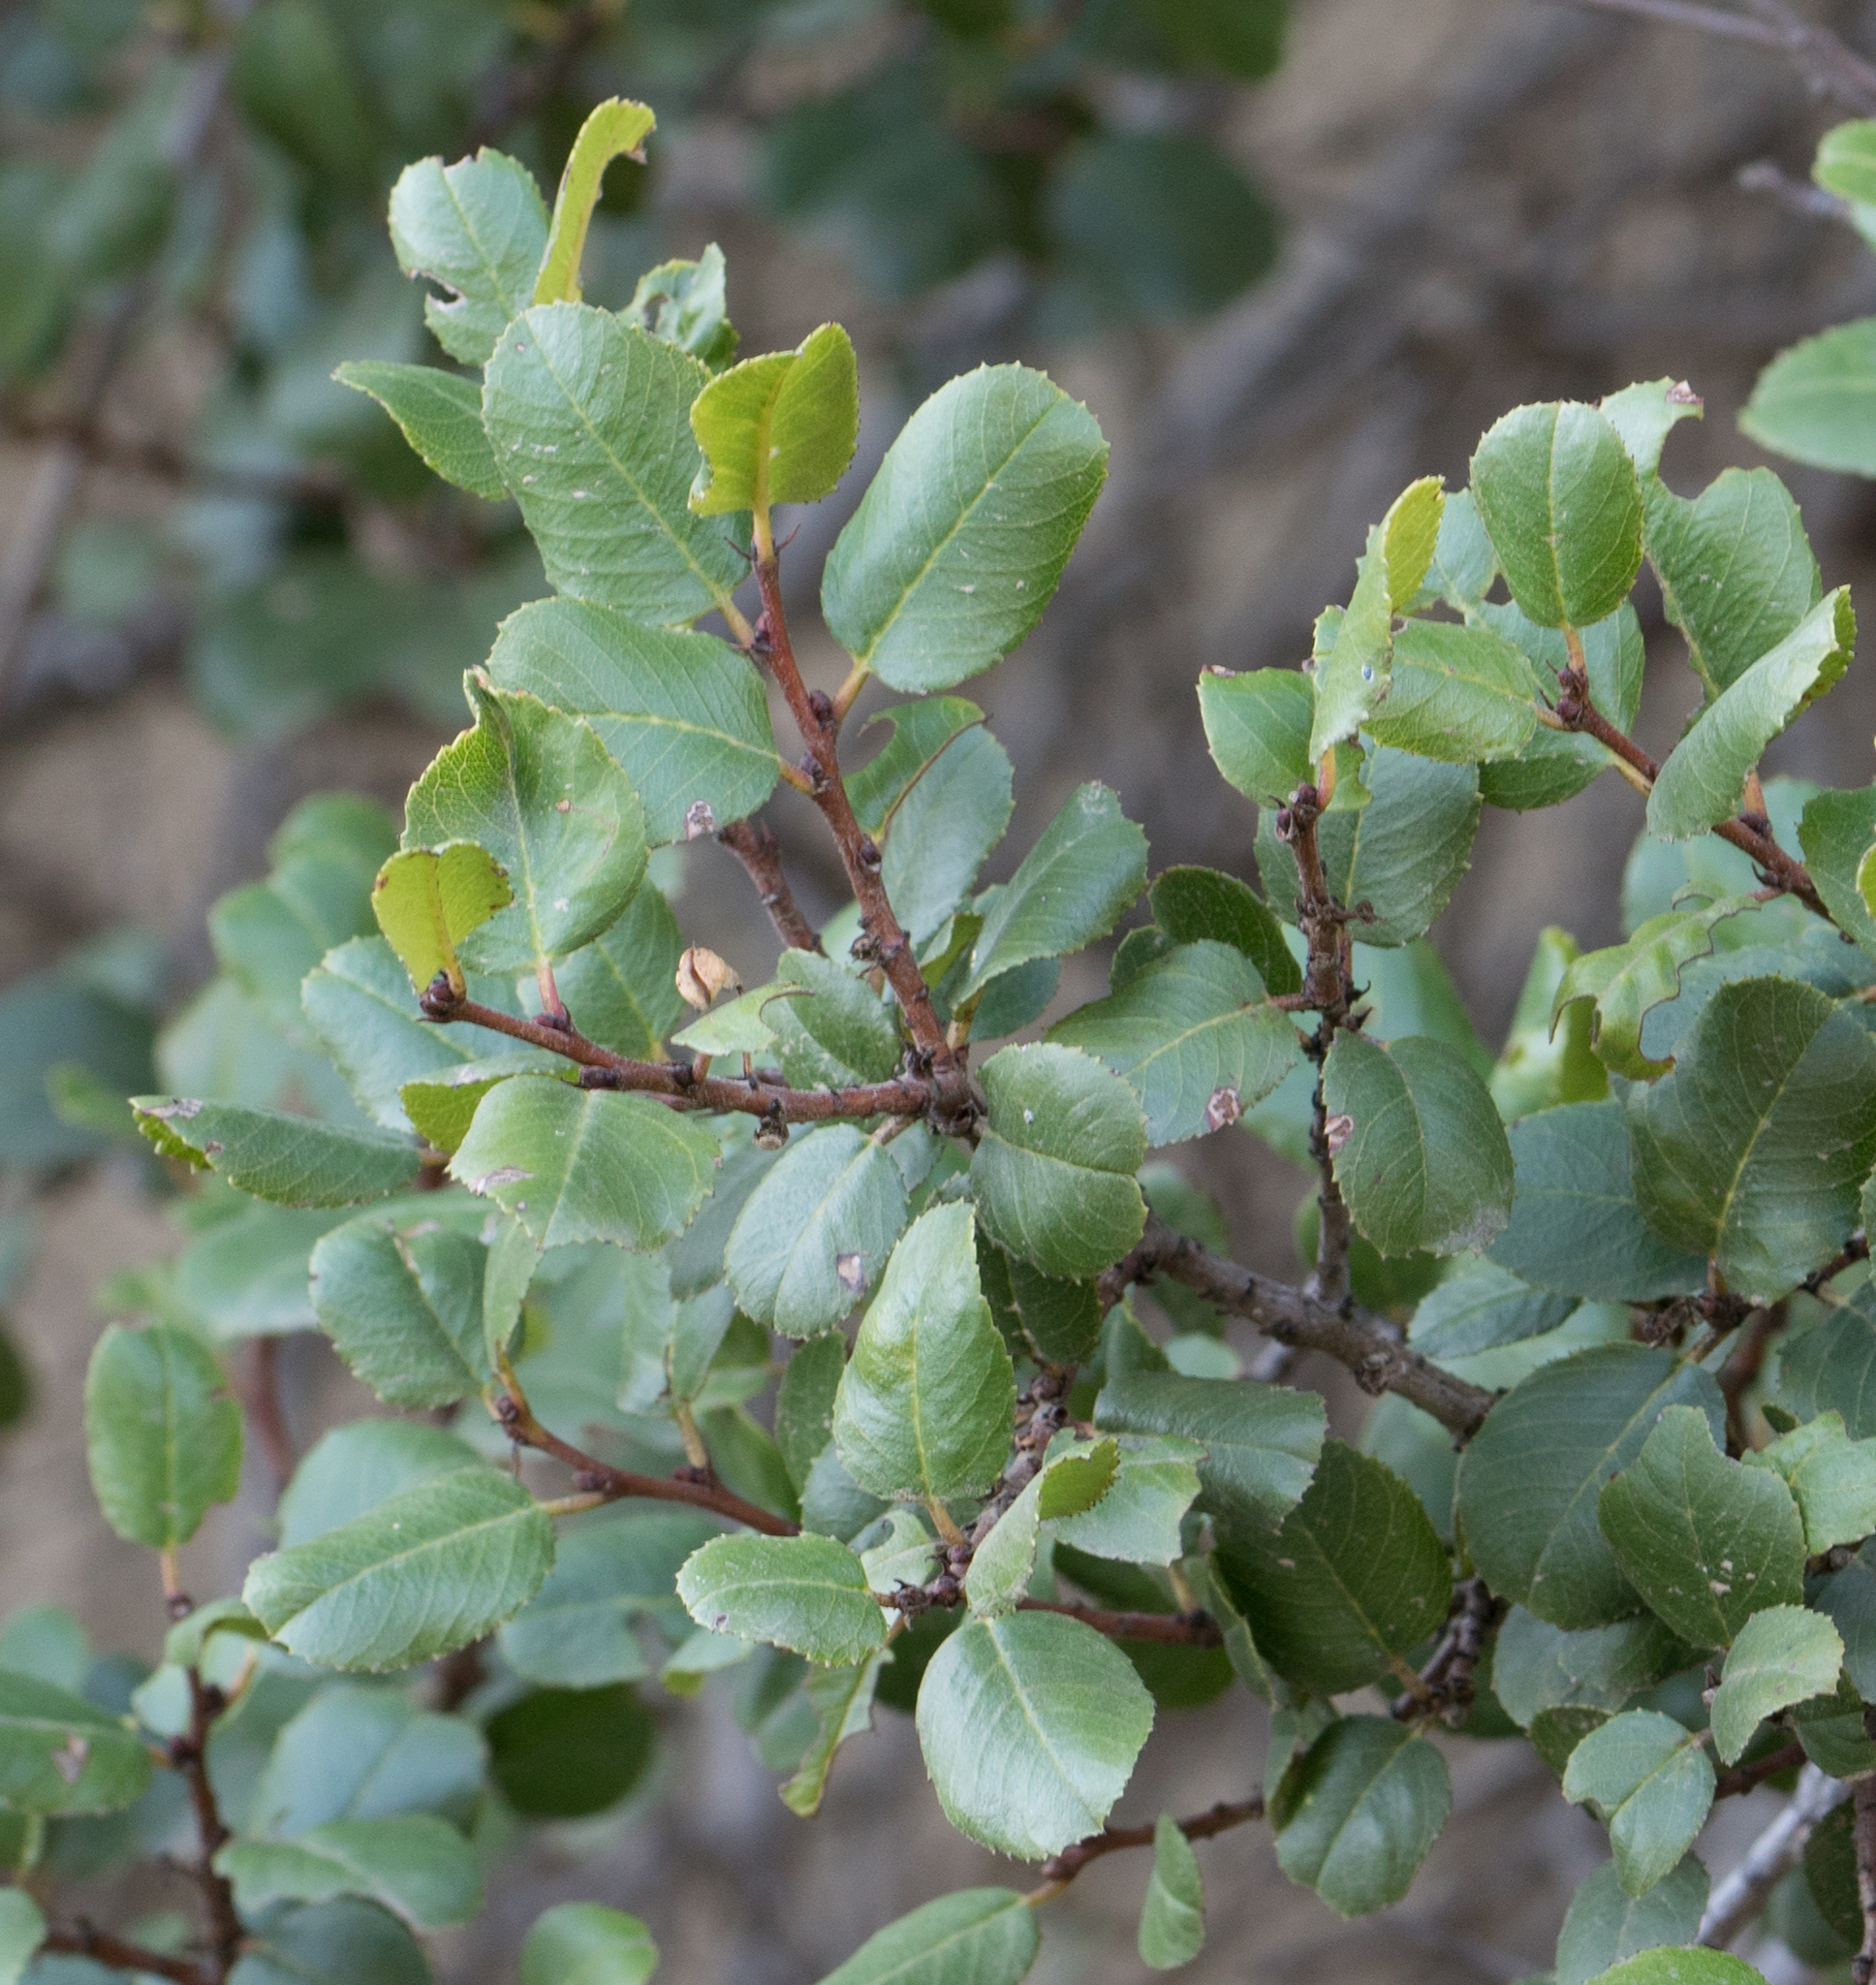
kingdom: Plantae
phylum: Tracheophyta
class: Magnoliopsida
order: Rosales
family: Rhamnaceae
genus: Endotropis
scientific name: Endotropis crocea
